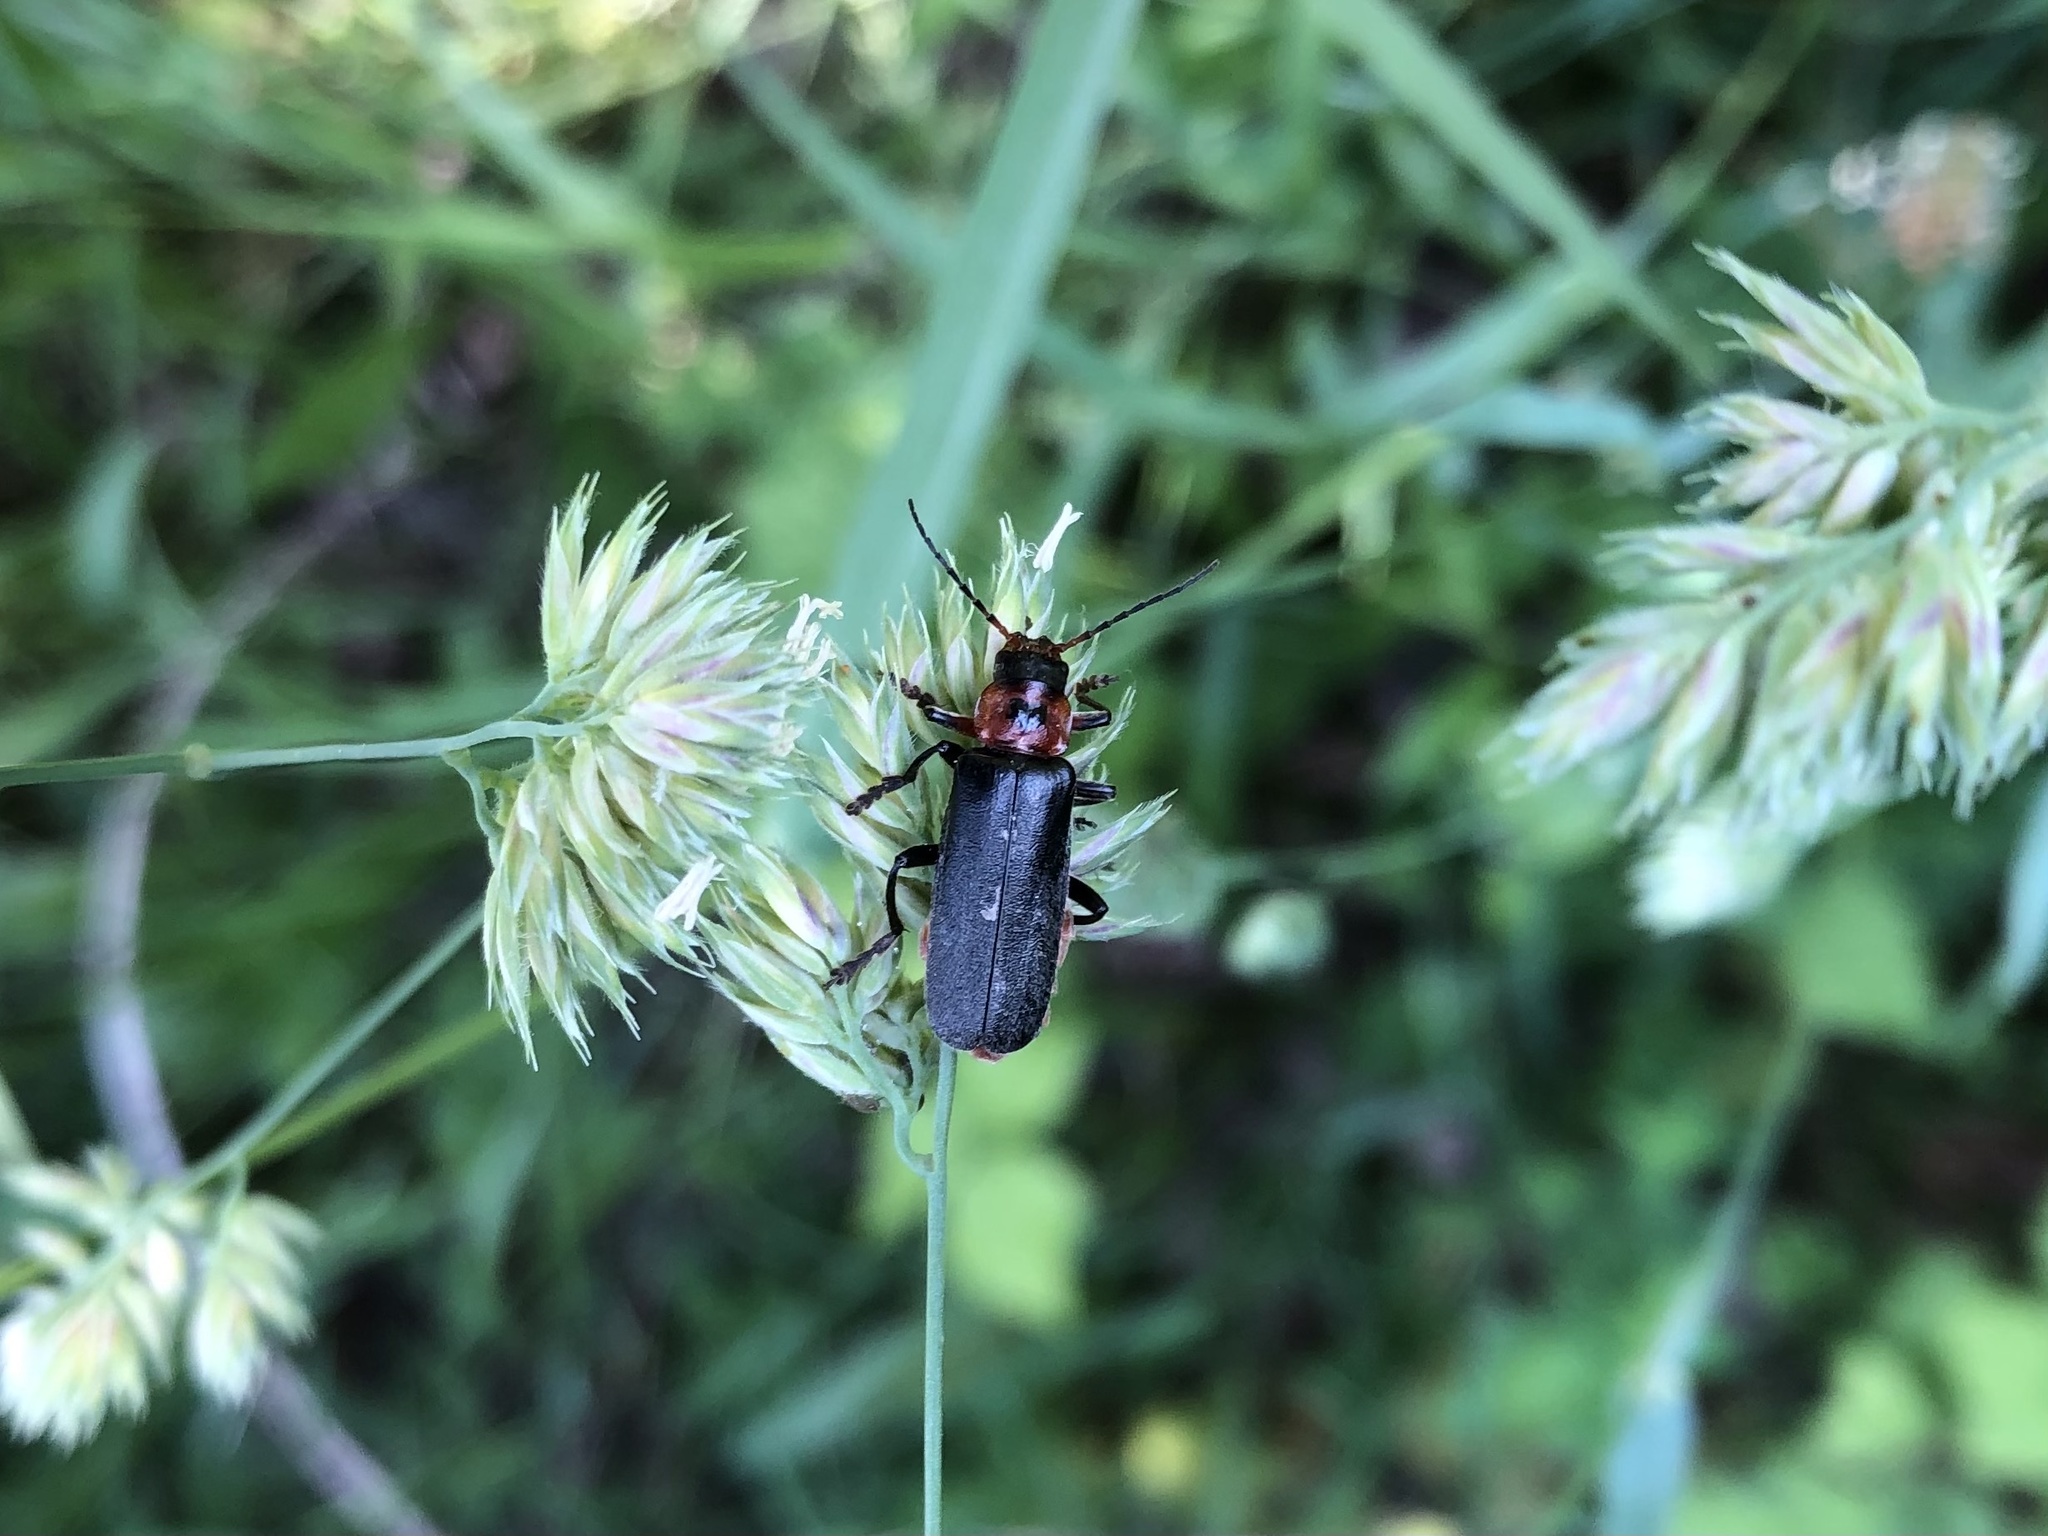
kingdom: Animalia
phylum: Arthropoda
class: Insecta
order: Coleoptera
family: Cantharidae
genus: Cantharis
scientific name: Cantharis rustica
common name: Soldier beetle
